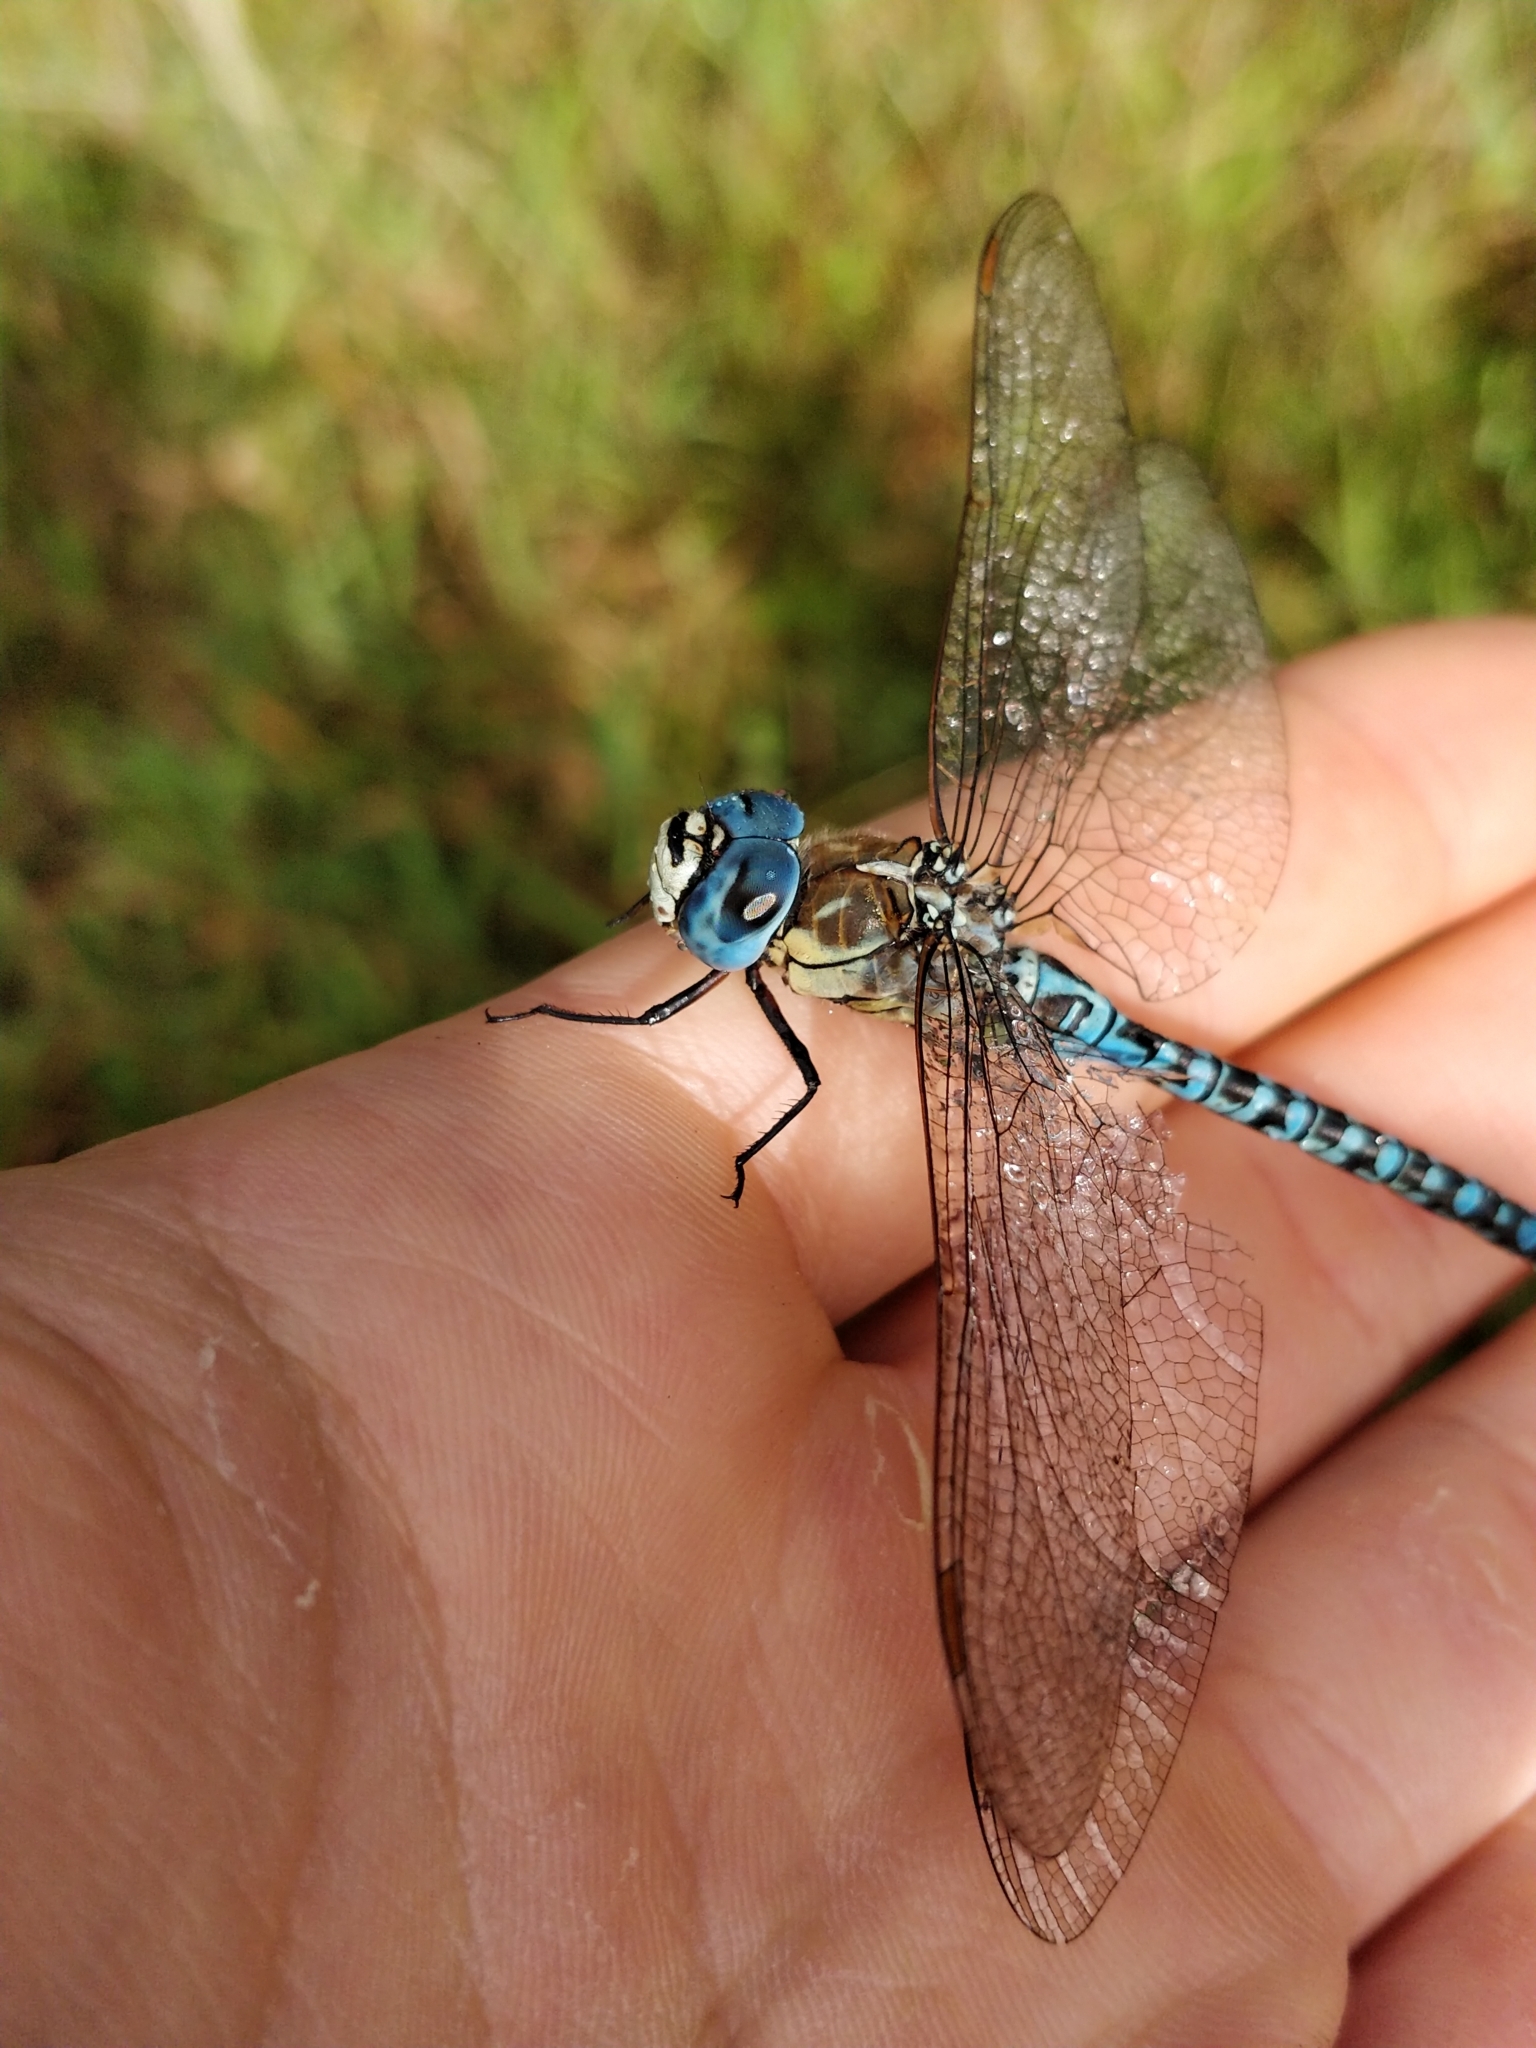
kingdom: Animalia
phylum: Arthropoda
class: Insecta
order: Odonata
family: Aeshnidae
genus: Aeshna
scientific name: Aeshna affinis
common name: Southern migrant hawker
